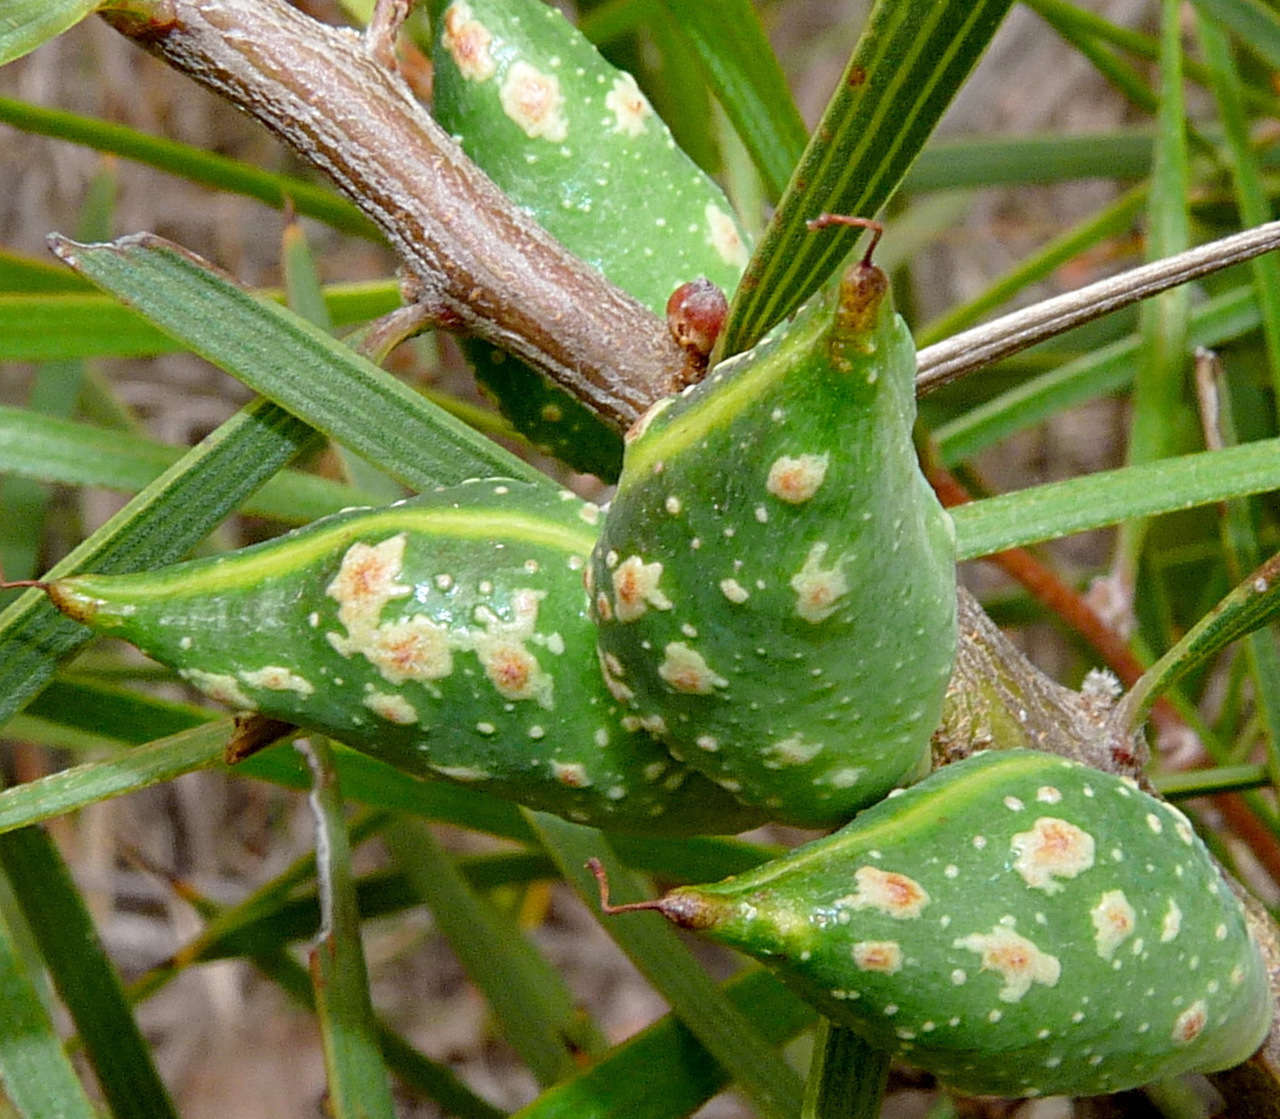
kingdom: Plantae
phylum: Tracheophyta
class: Magnoliopsida
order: Proteales
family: Proteaceae
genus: Hakea
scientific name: Hakea ulicina
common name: Furze hakea
